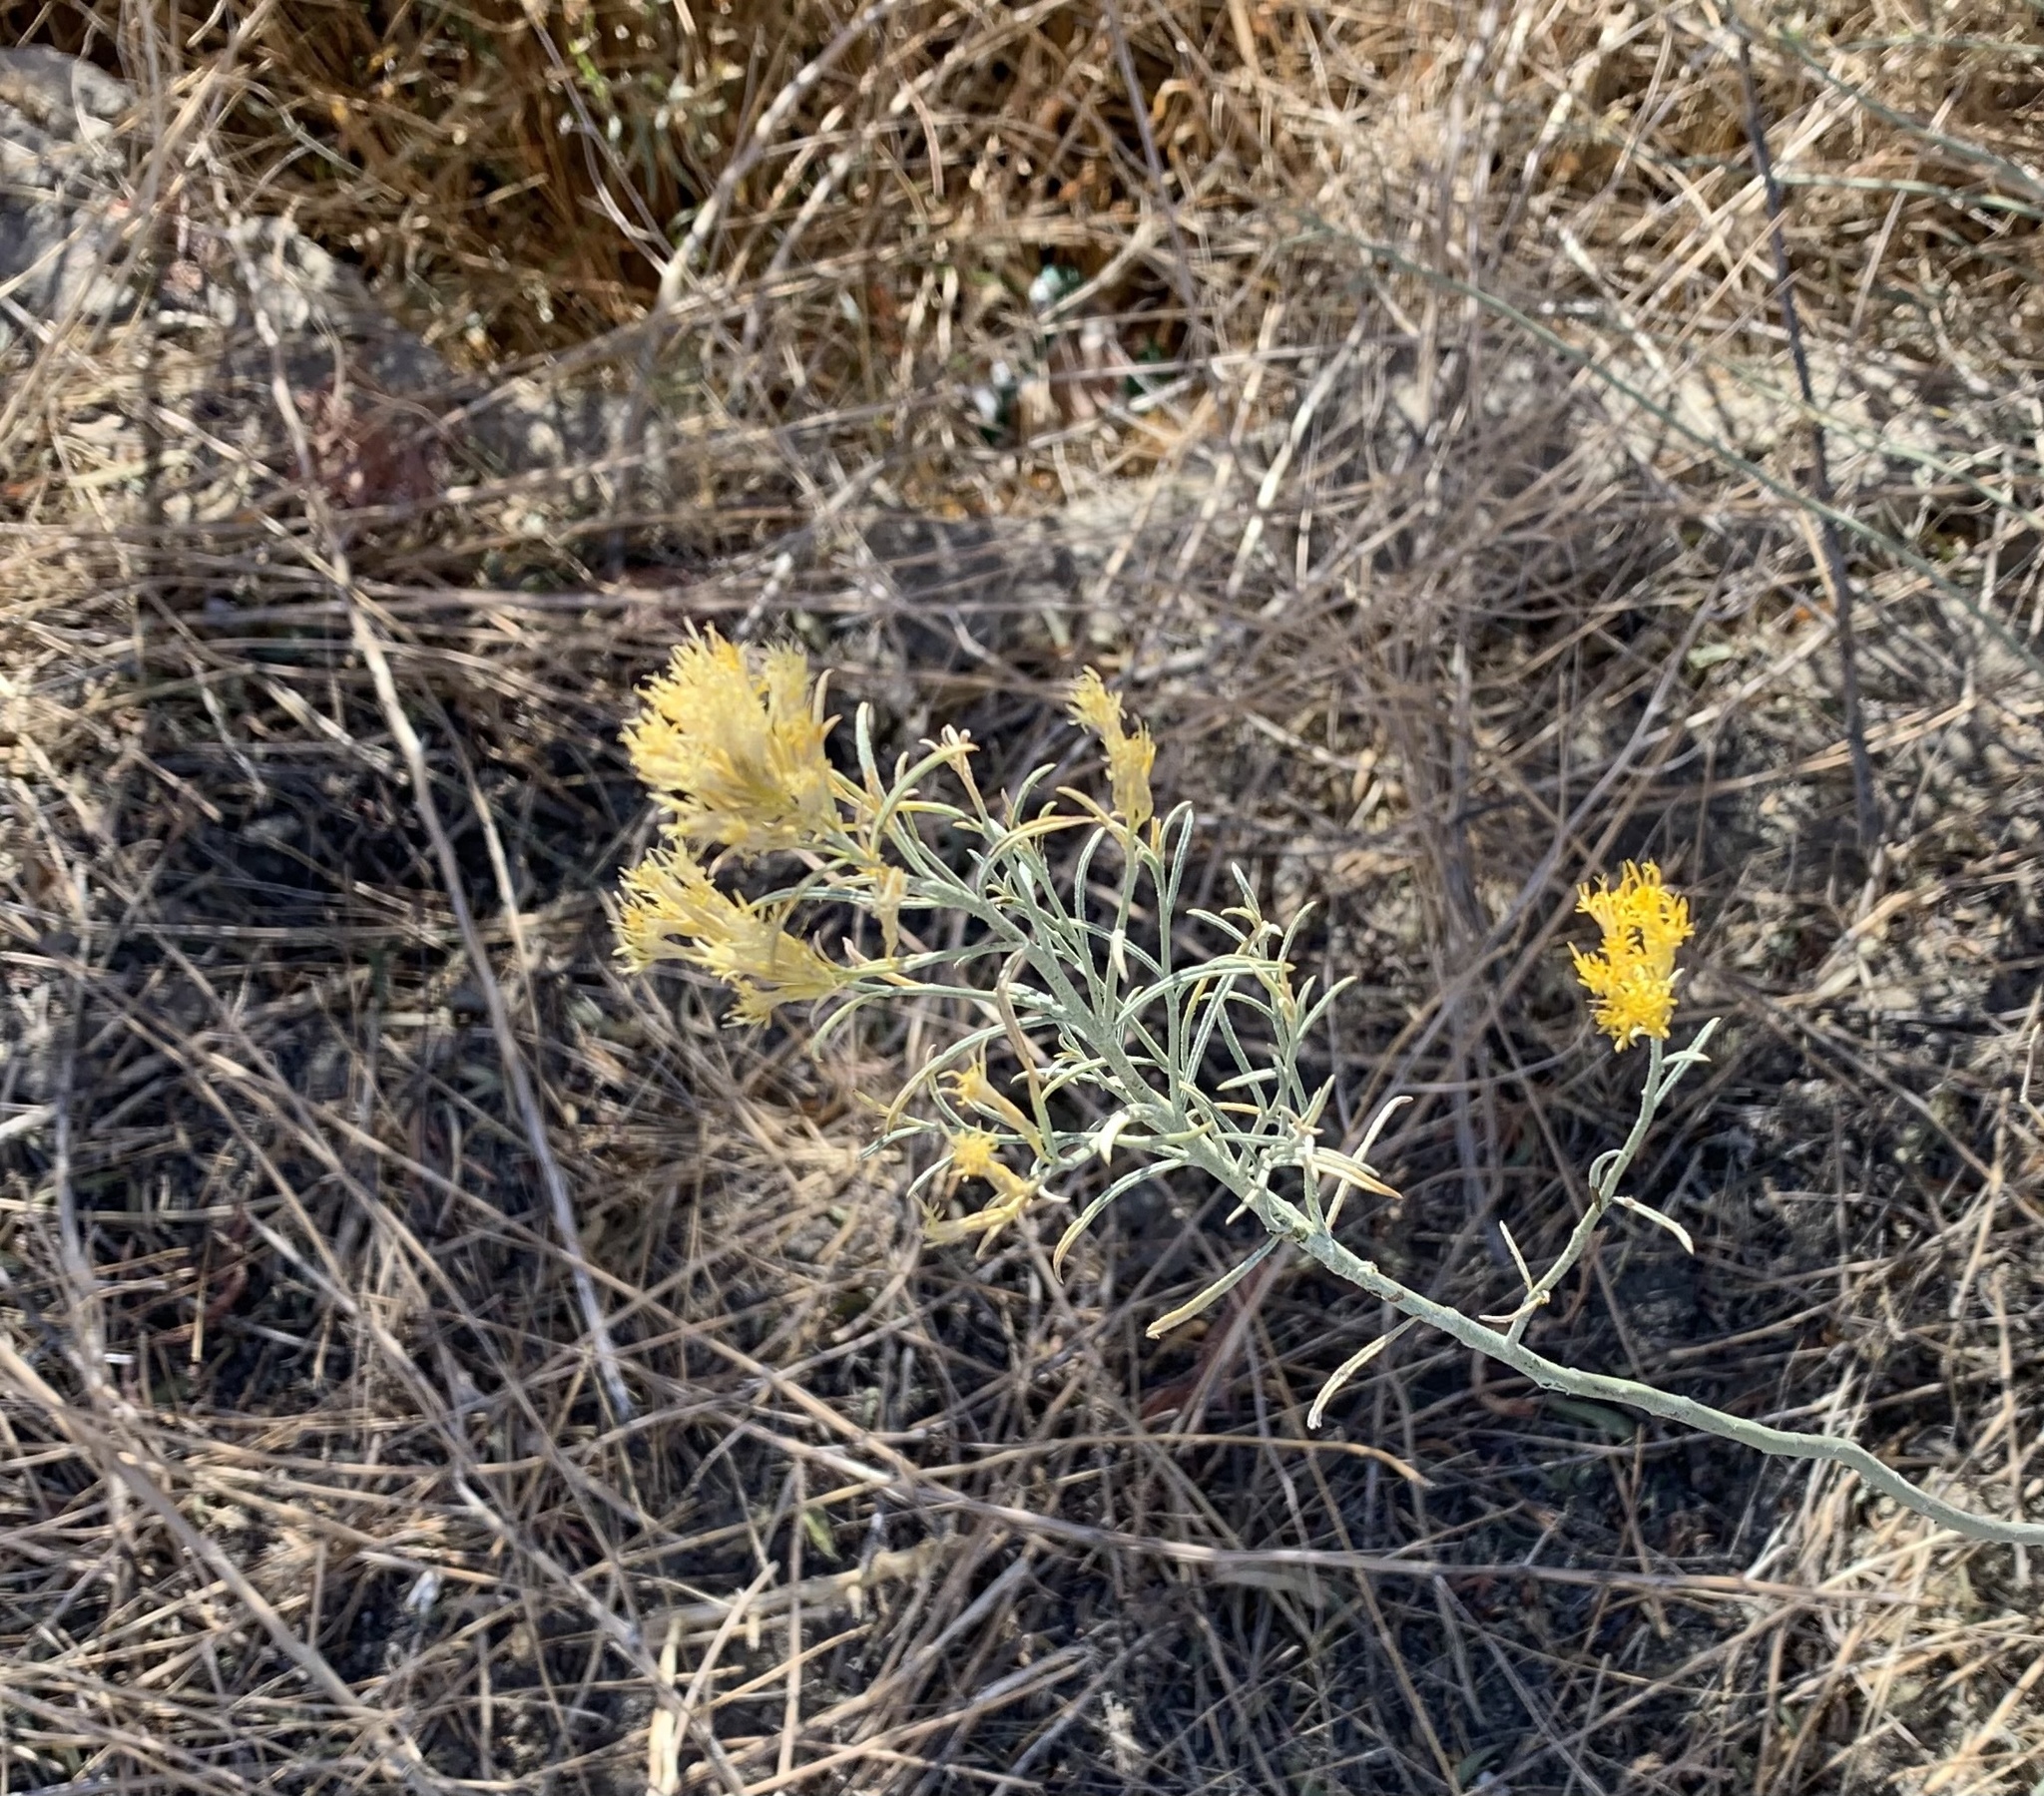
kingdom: Plantae
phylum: Tracheophyta
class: Magnoliopsida
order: Asterales
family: Asteraceae
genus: Ericameria
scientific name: Ericameria nauseosa
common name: Rubber rabbitbrush
